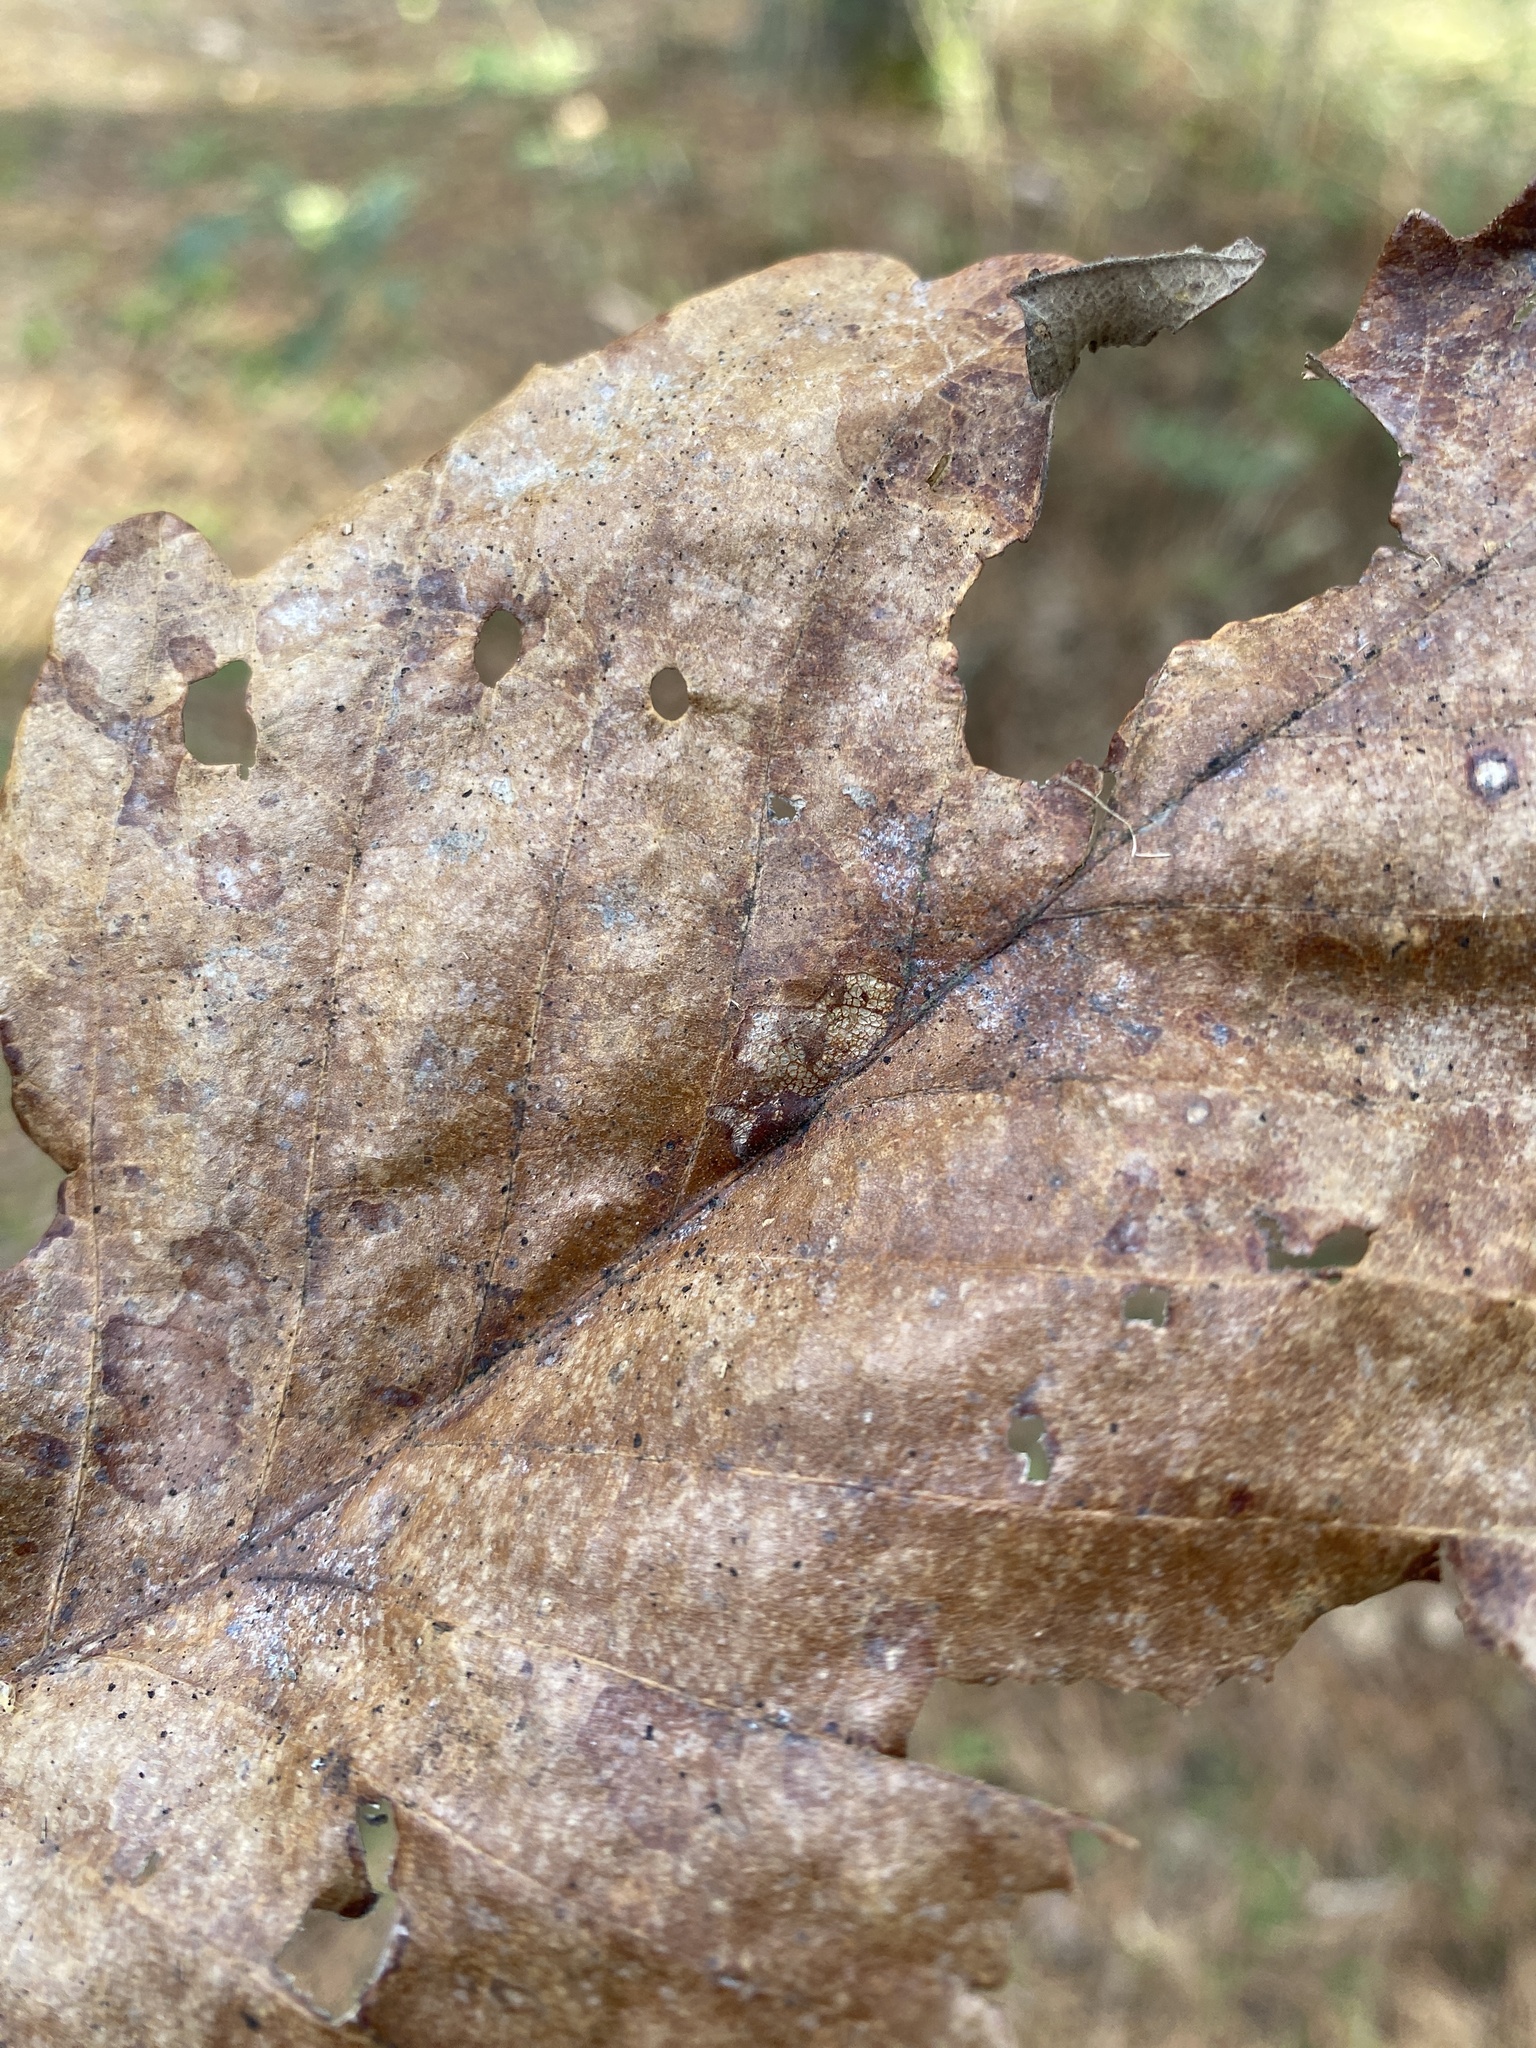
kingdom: Animalia
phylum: Arthropoda
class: Insecta
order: Hymenoptera
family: Cynipidae
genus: Andricus
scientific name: Andricus quercusflocci
